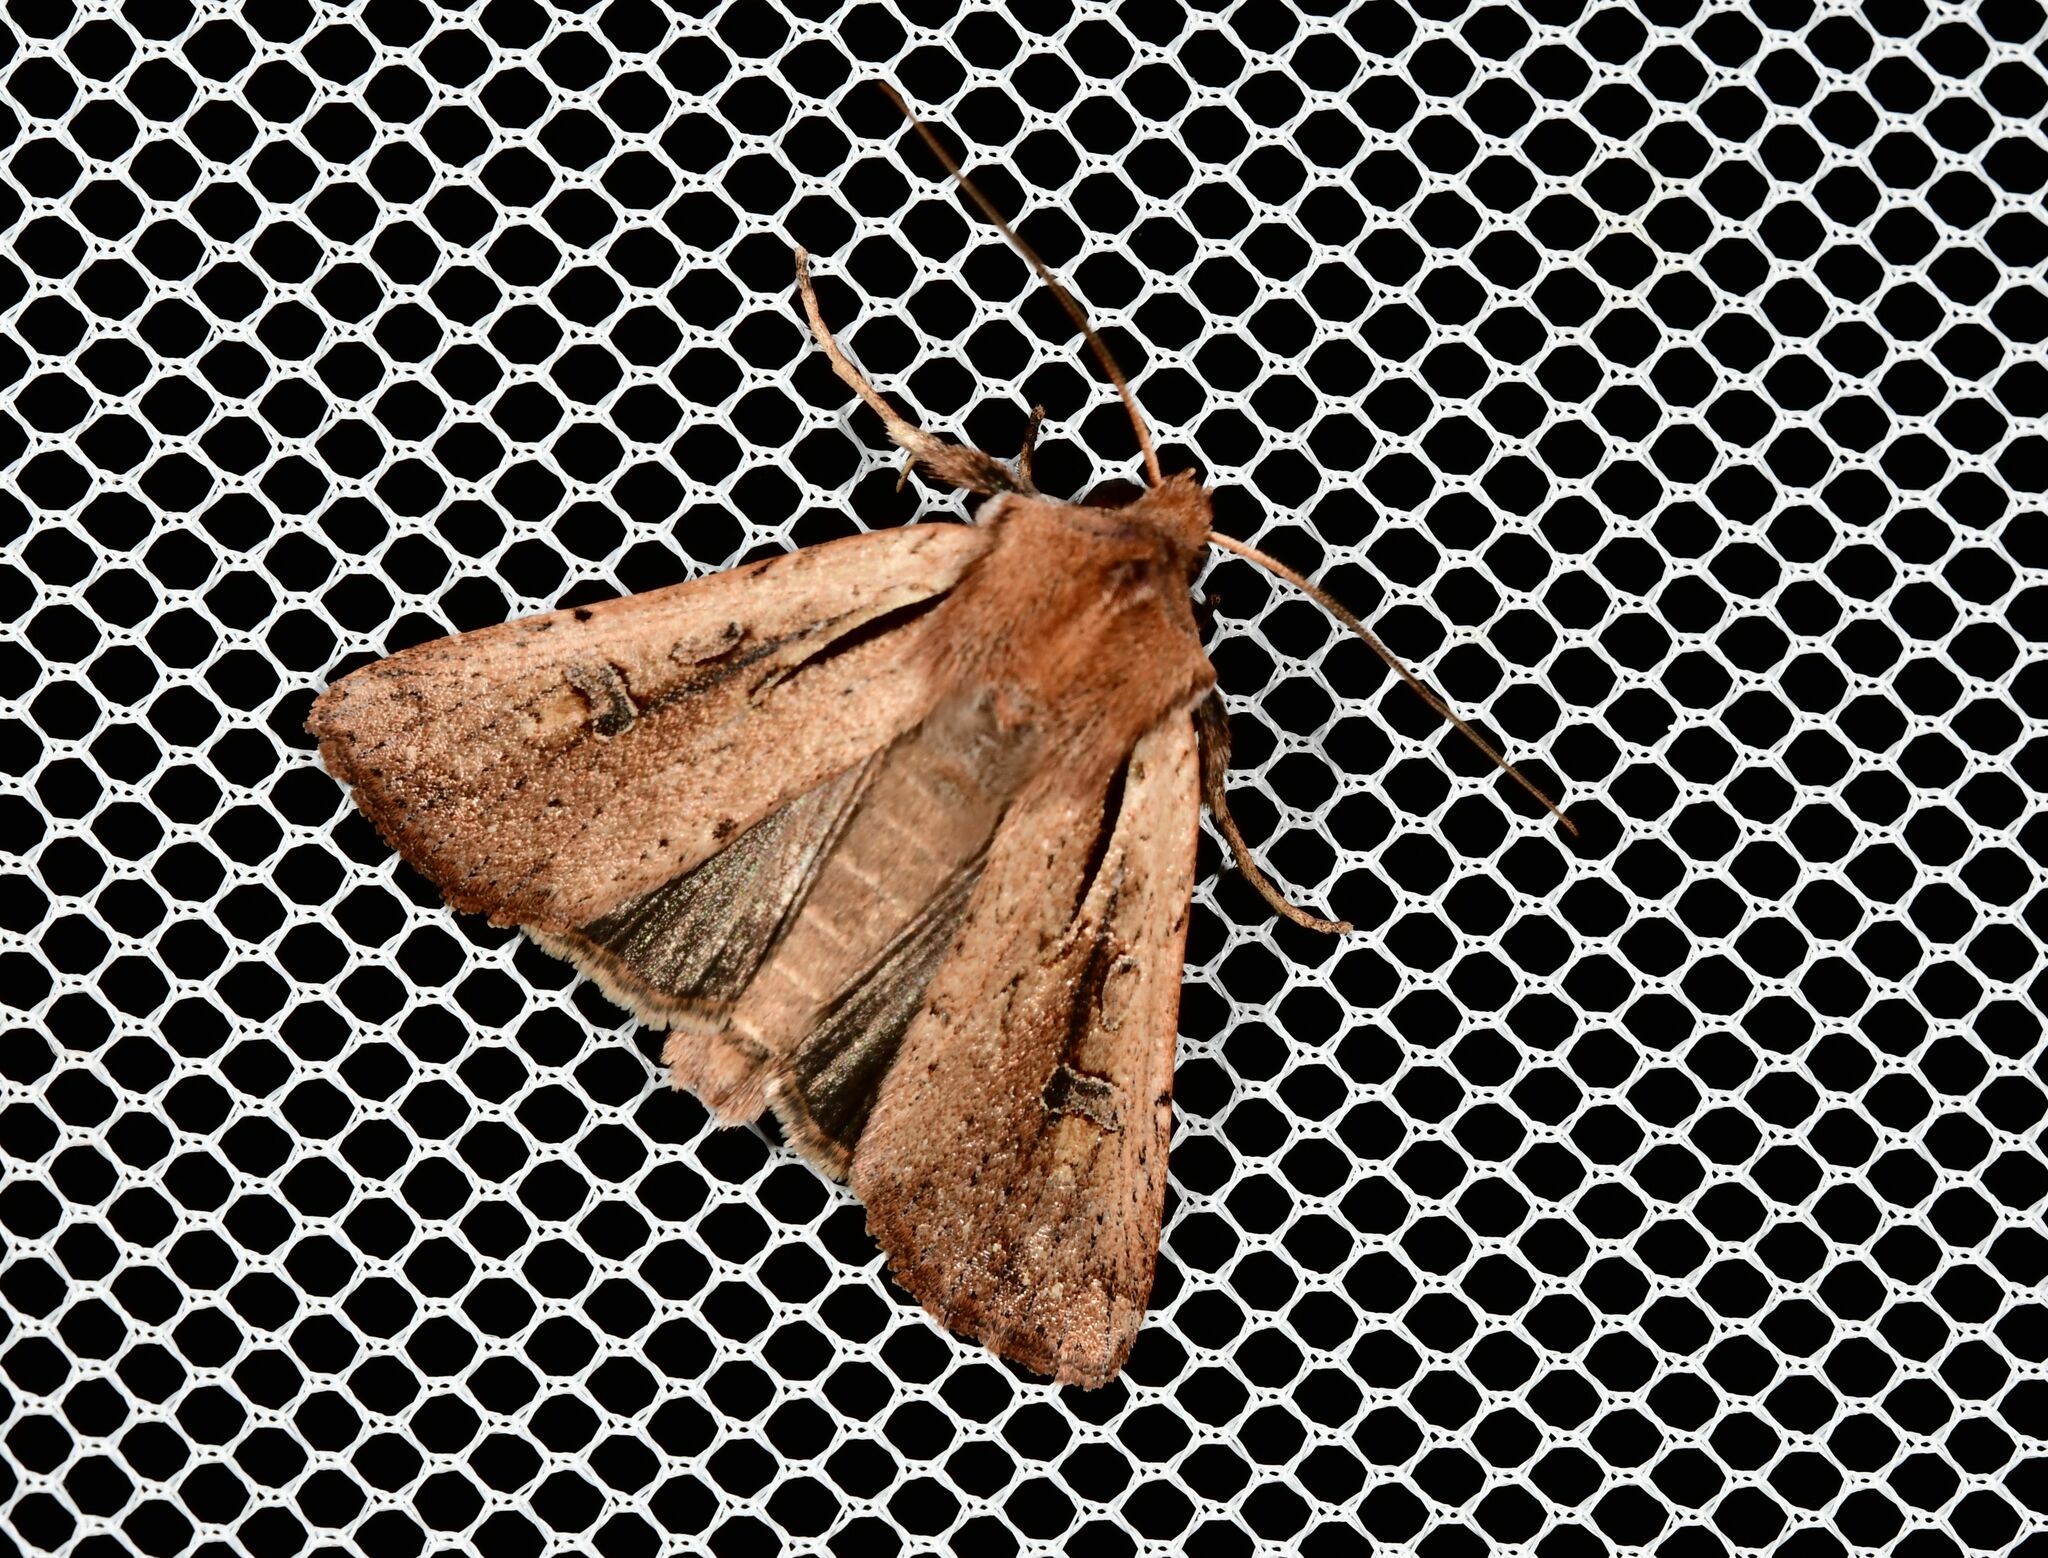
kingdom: Animalia
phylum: Arthropoda
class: Insecta
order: Lepidoptera
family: Noctuidae
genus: Ichneutica
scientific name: Ichneutica atristriga
